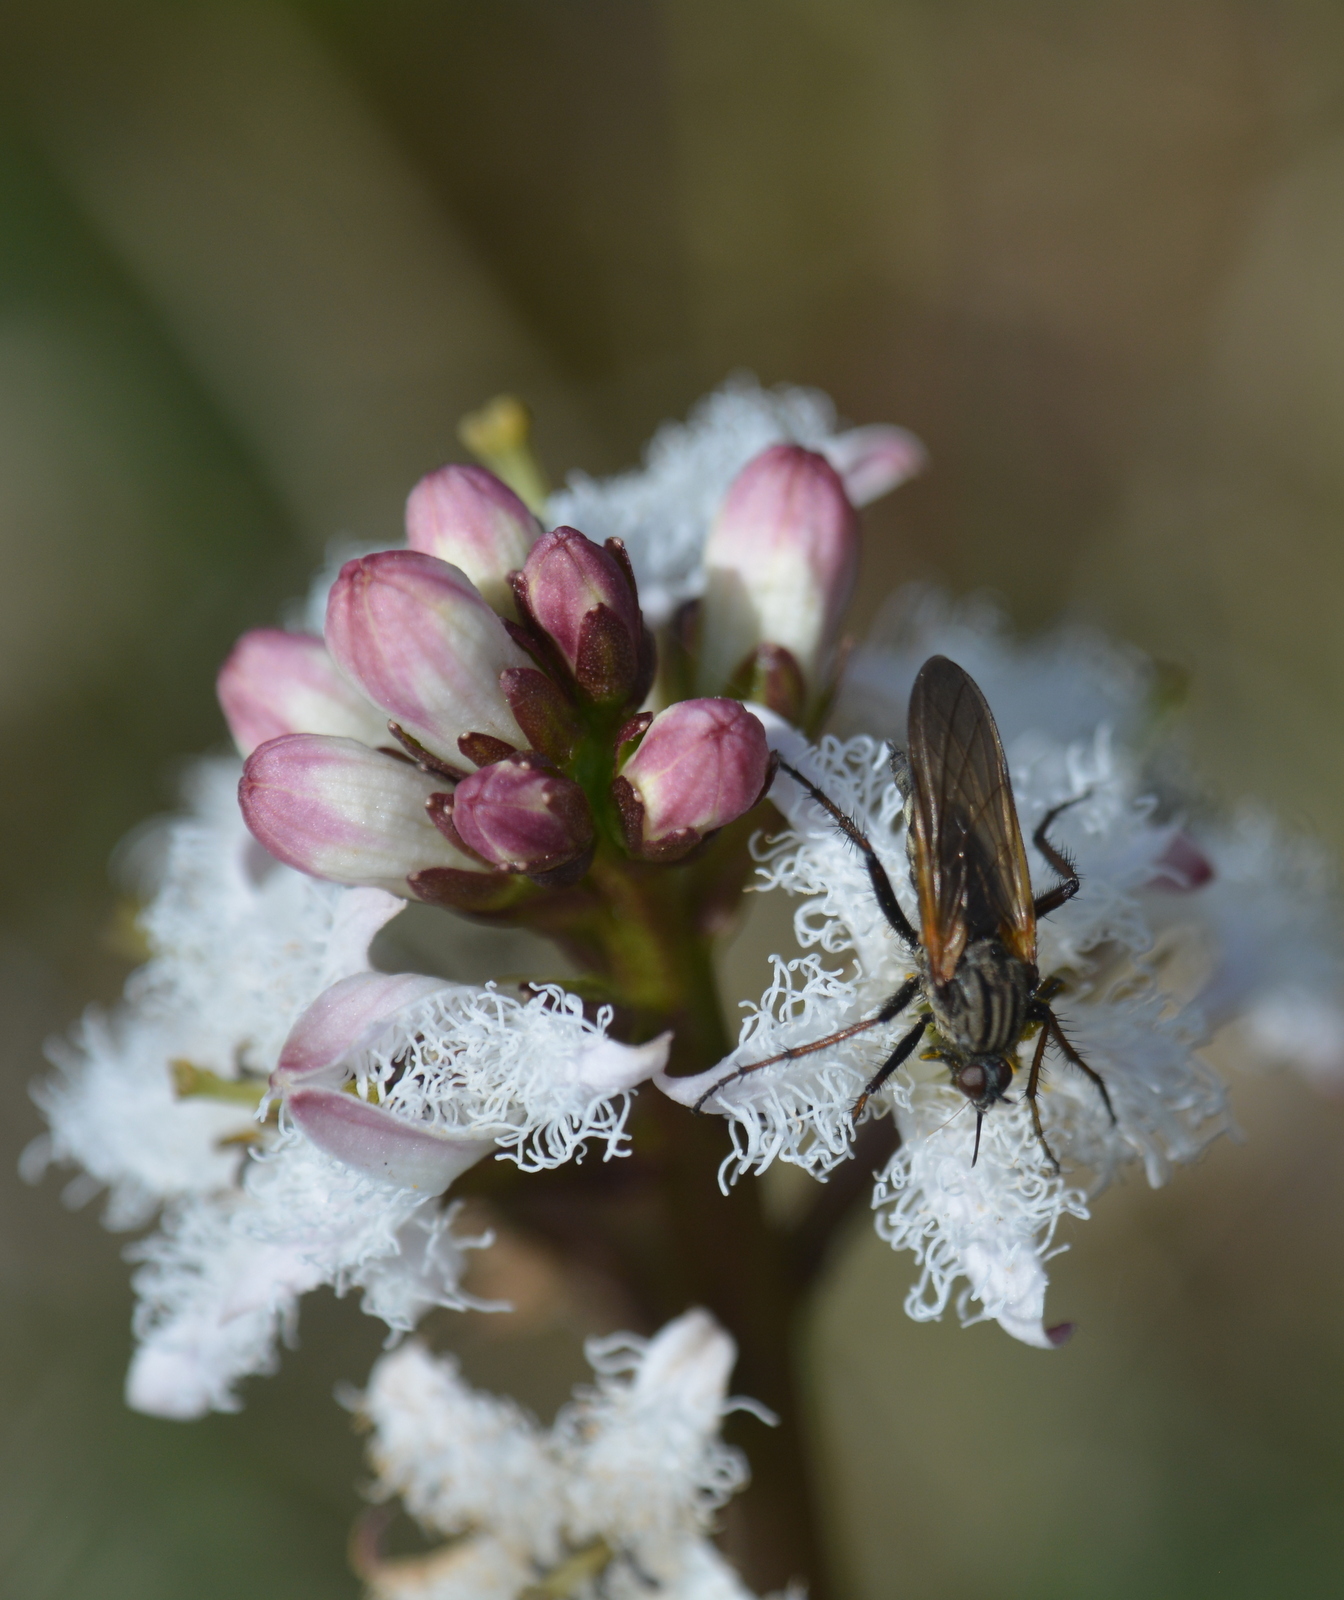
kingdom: Animalia
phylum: Arthropoda
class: Insecta
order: Diptera
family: Empididae
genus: Empis
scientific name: Empis tessellata
